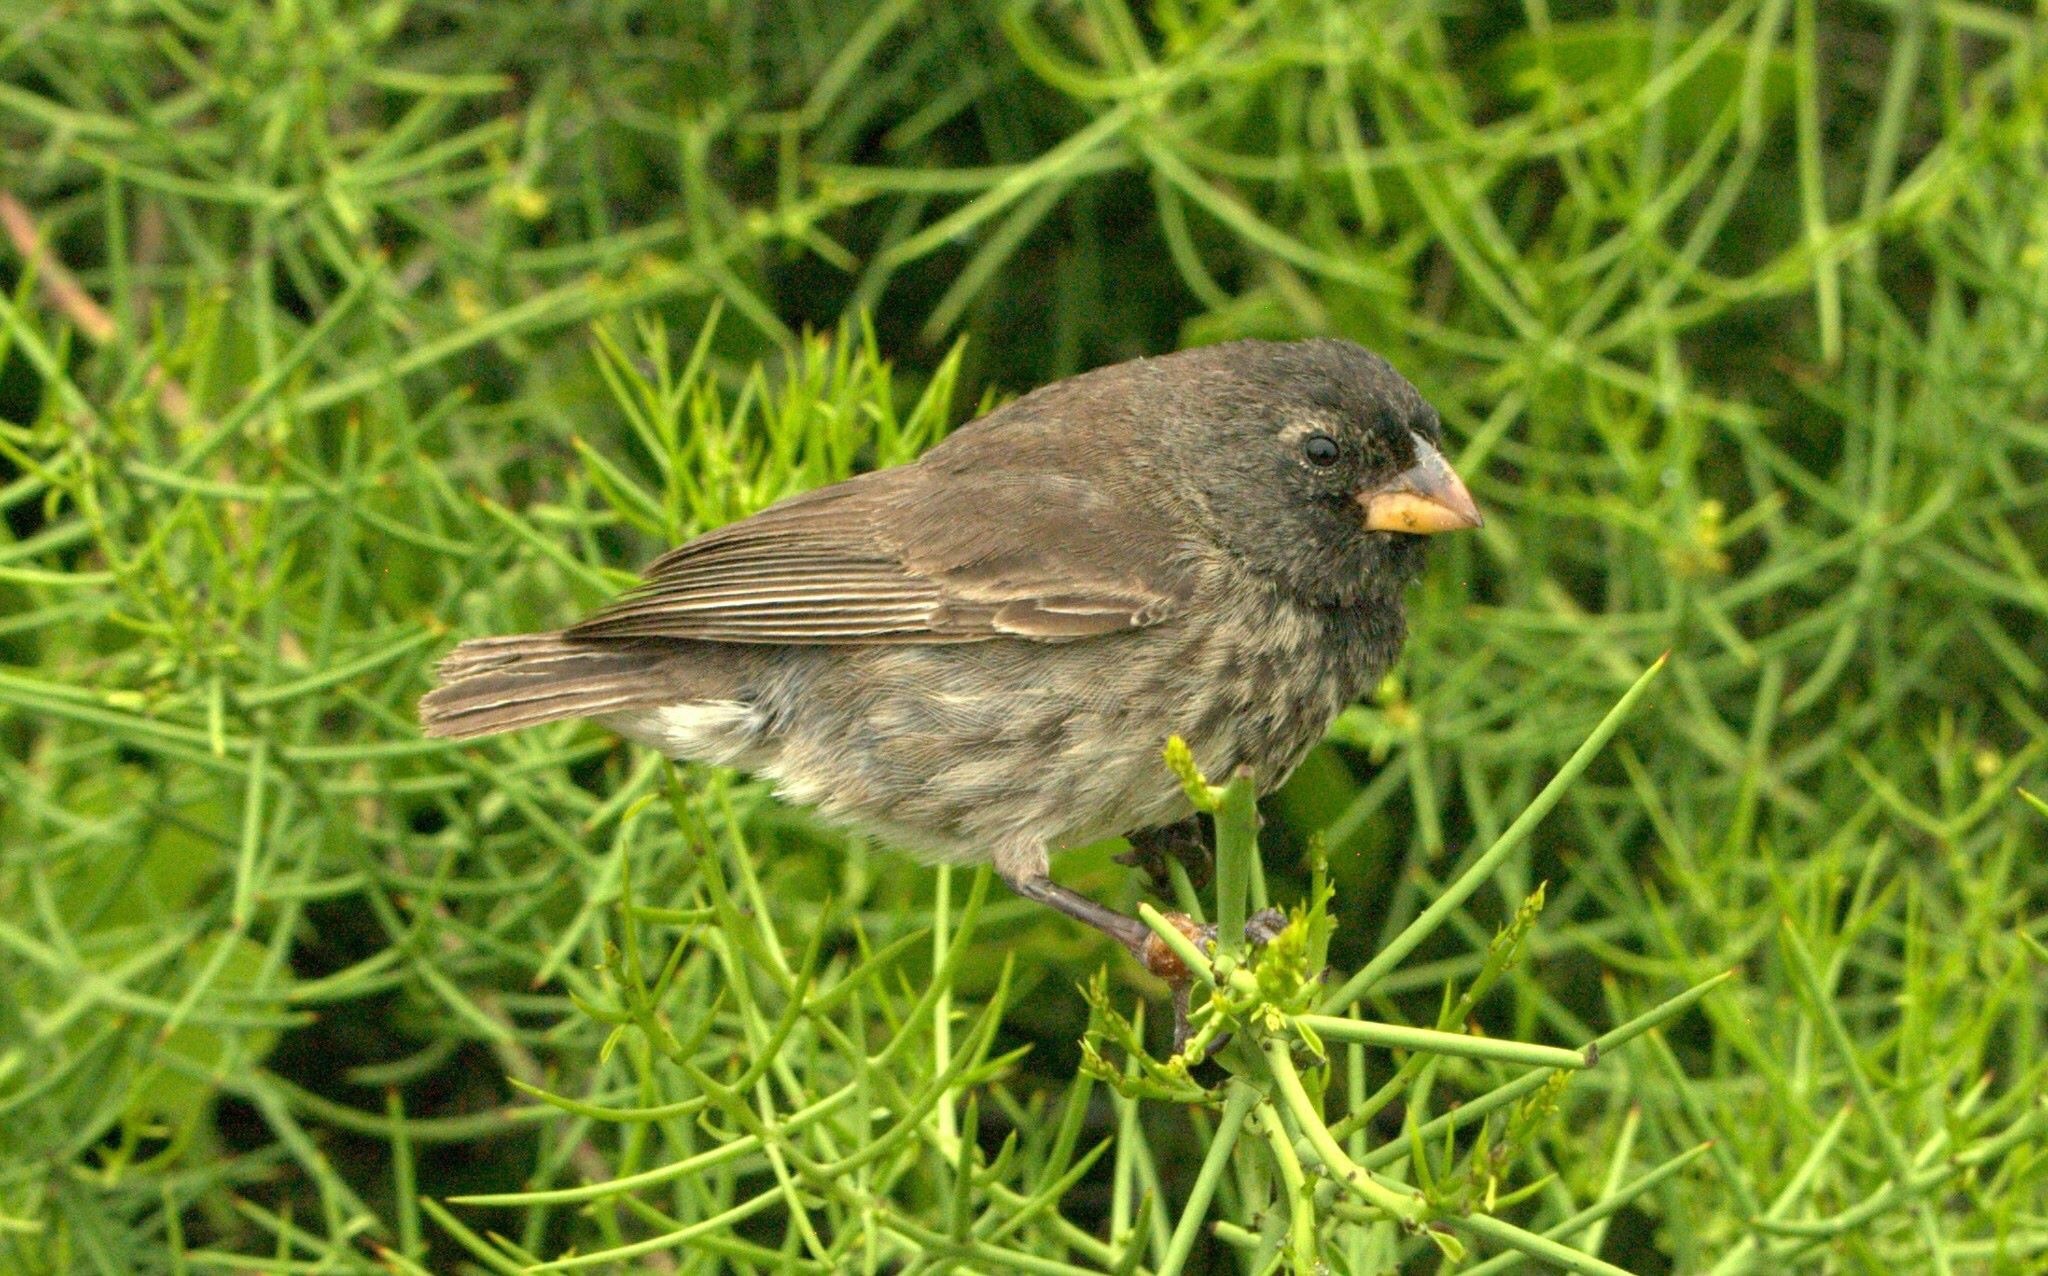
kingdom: Animalia
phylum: Chordata
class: Aves
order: Passeriformes
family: Thraupidae
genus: Camarhynchus
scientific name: Camarhynchus psittacula
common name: Large tree finch
